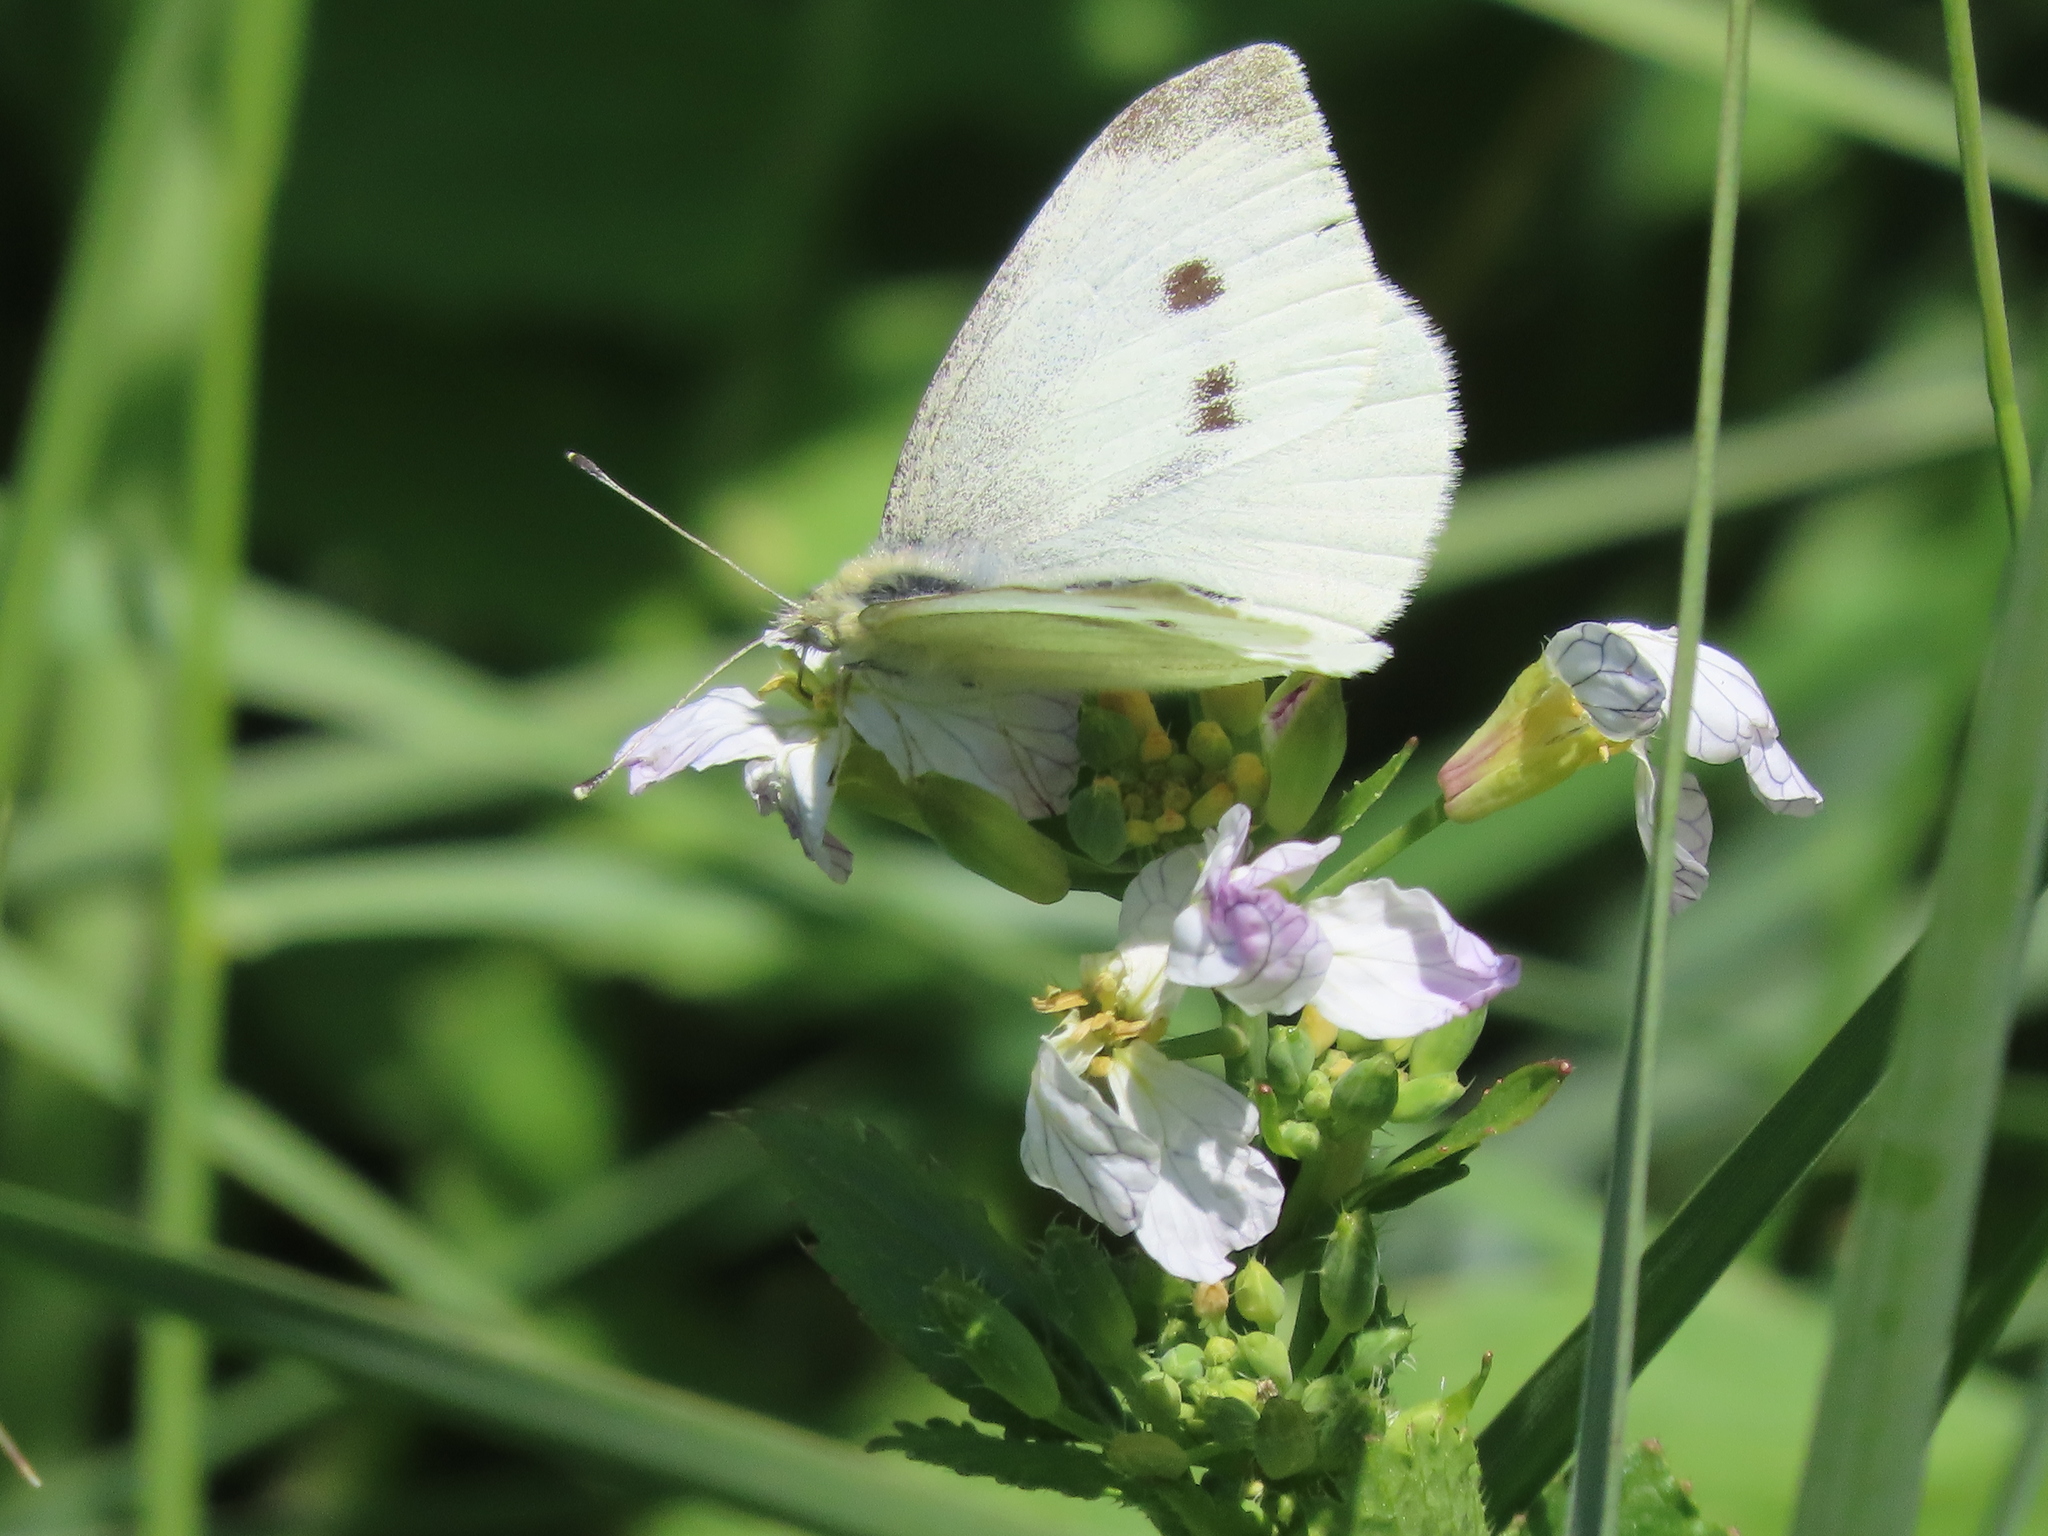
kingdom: Animalia
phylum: Arthropoda
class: Insecta
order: Lepidoptera
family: Pieridae
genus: Pieris
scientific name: Pieris rapae
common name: Small white
